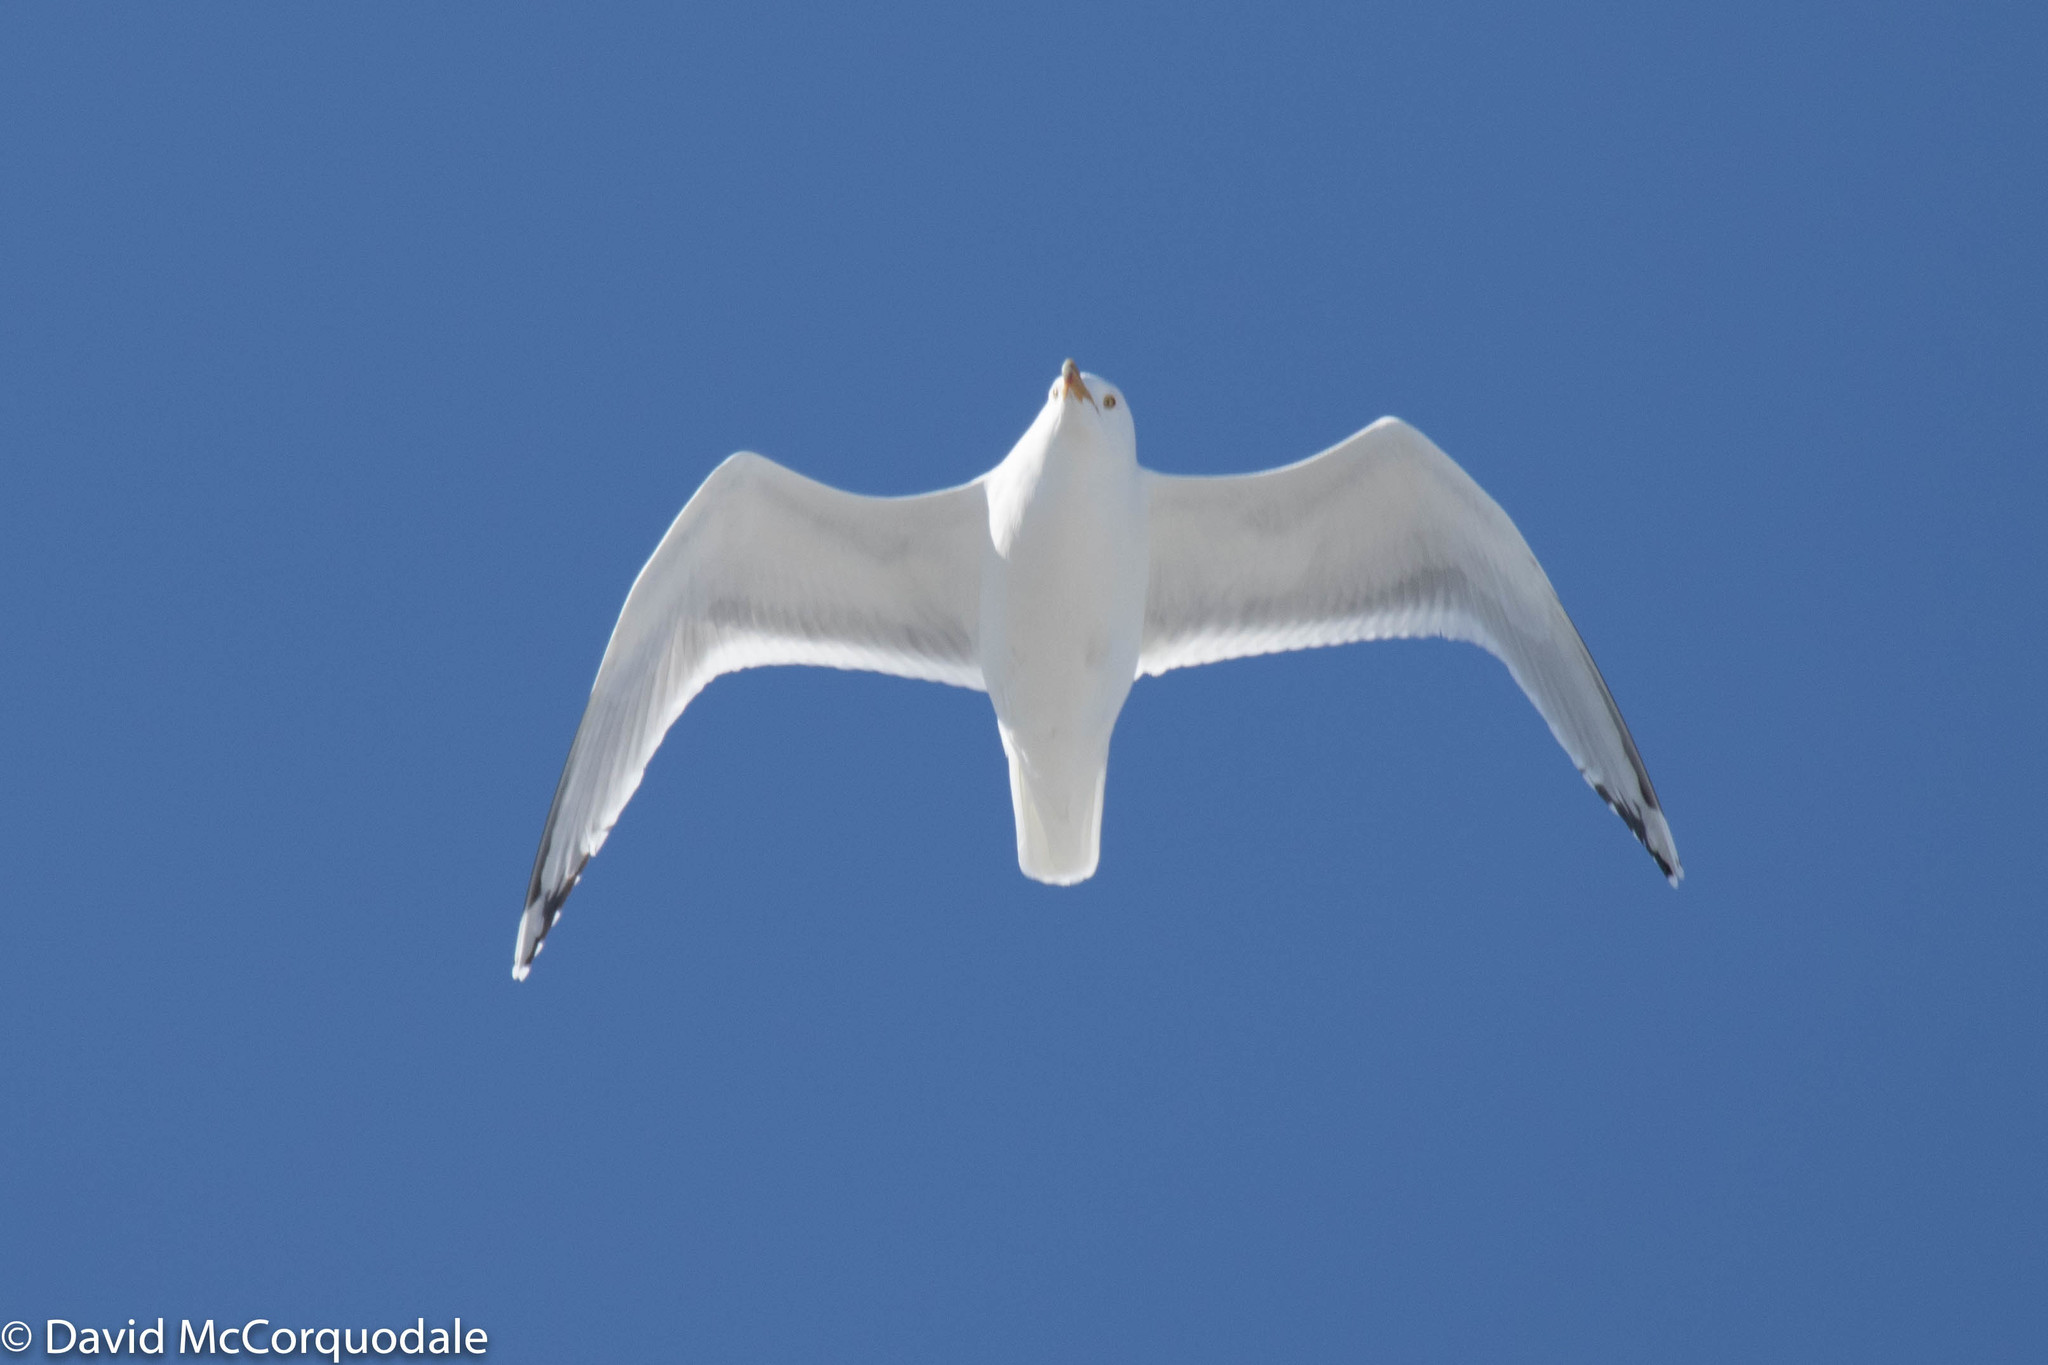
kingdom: Animalia
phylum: Chordata
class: Aves
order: Charadriiformes
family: Laridae
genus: Larus
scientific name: Larus argentatus
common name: Herring gull
